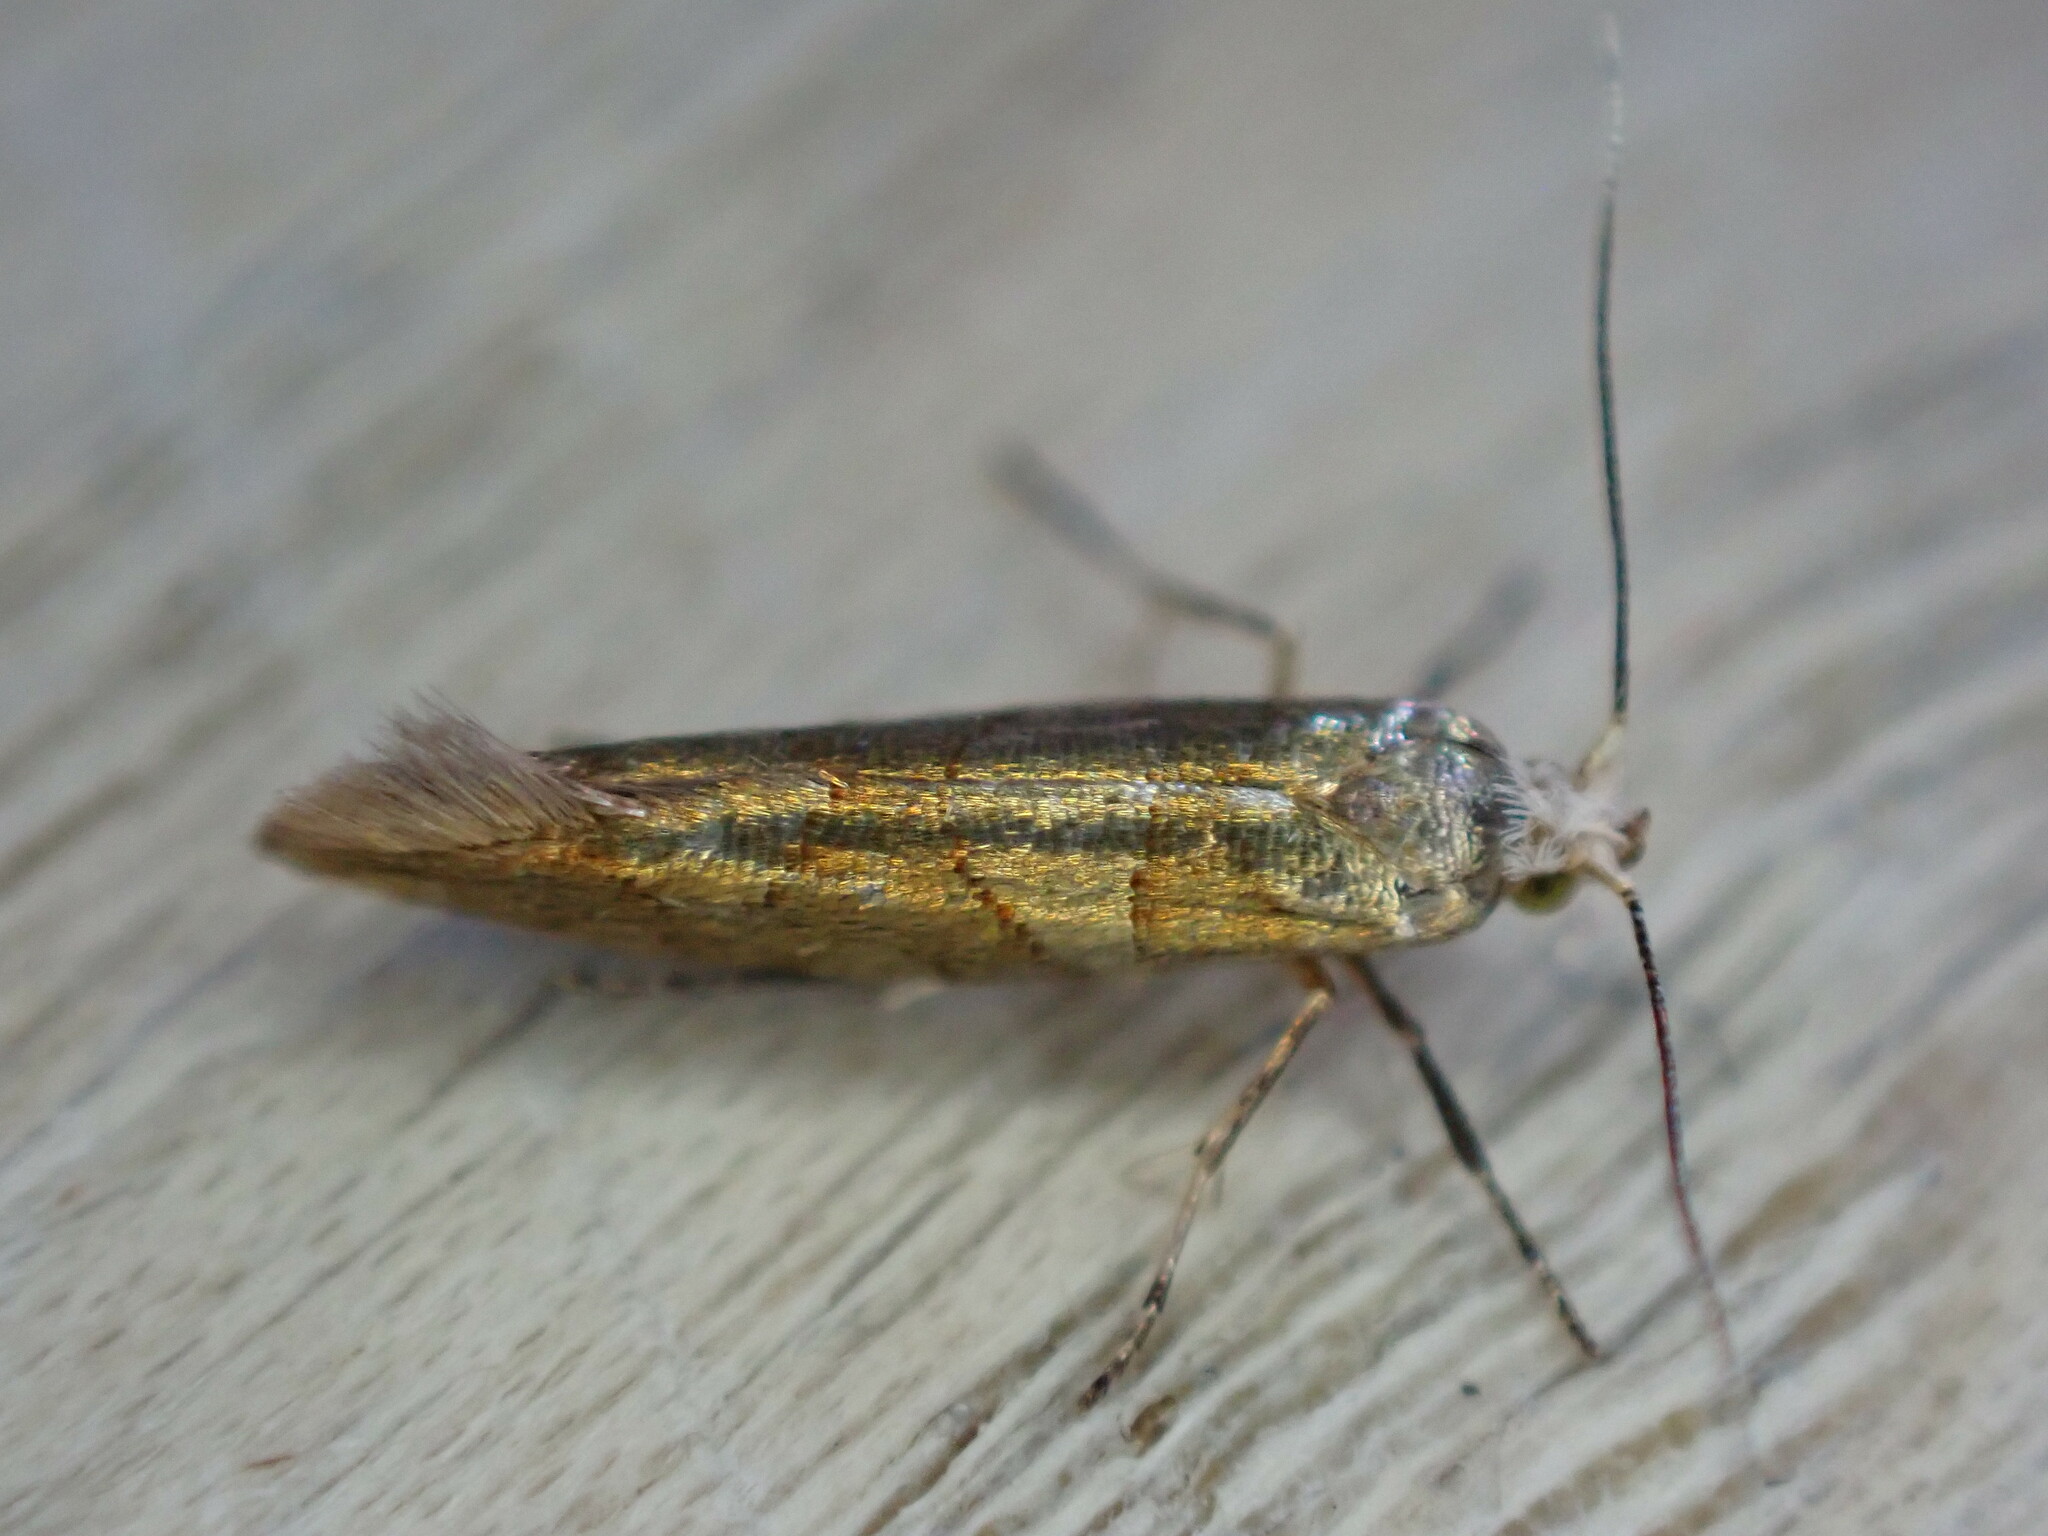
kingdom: Animalia
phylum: Arthropoda
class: Insecta
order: Lepidoptera
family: Argyresthiidae
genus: Argyresthia
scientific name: Argyresthia goedartella
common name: Golden argent
